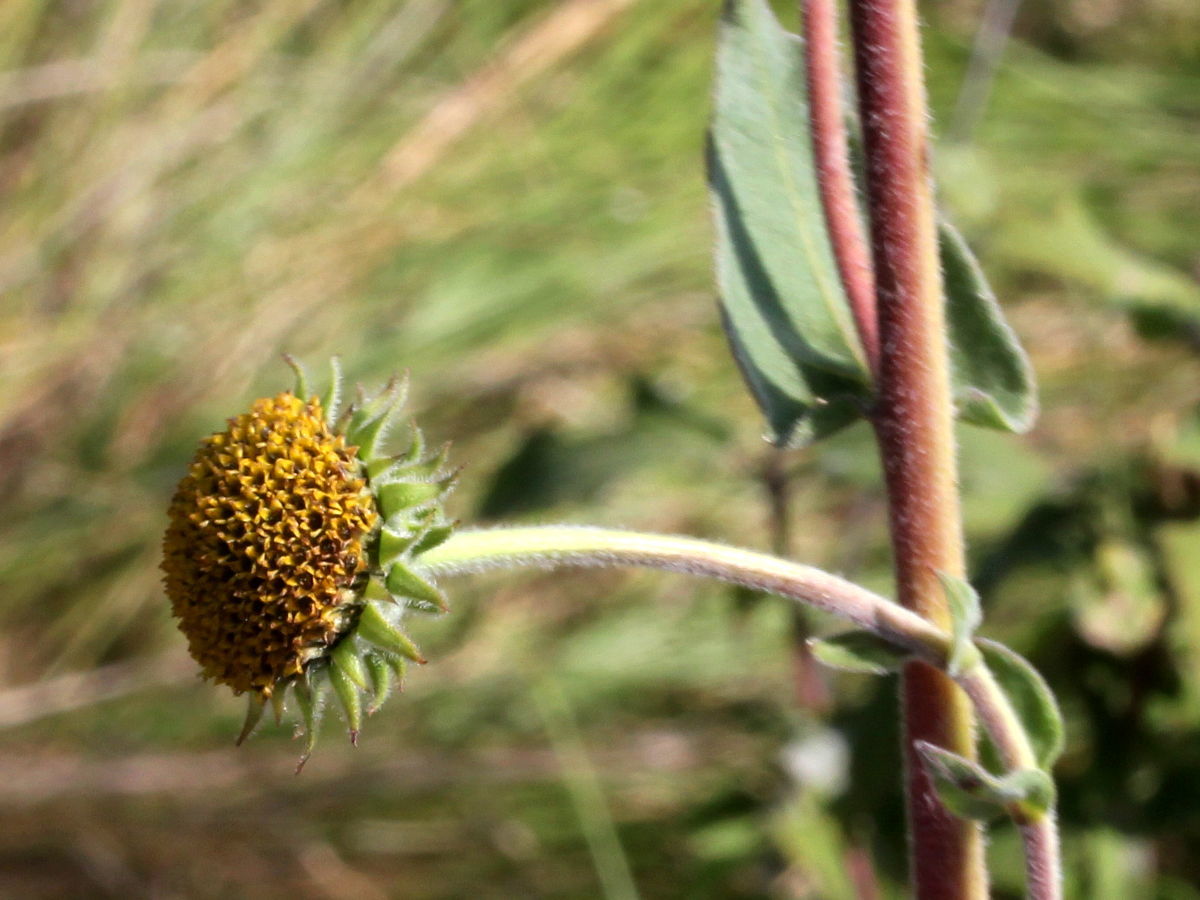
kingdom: Plantae
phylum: Tracheophyta
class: Magnoliopsida
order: Asterales
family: Asteraceae
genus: Helianthus
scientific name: Helianthus mollis
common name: Ashy sunflower
